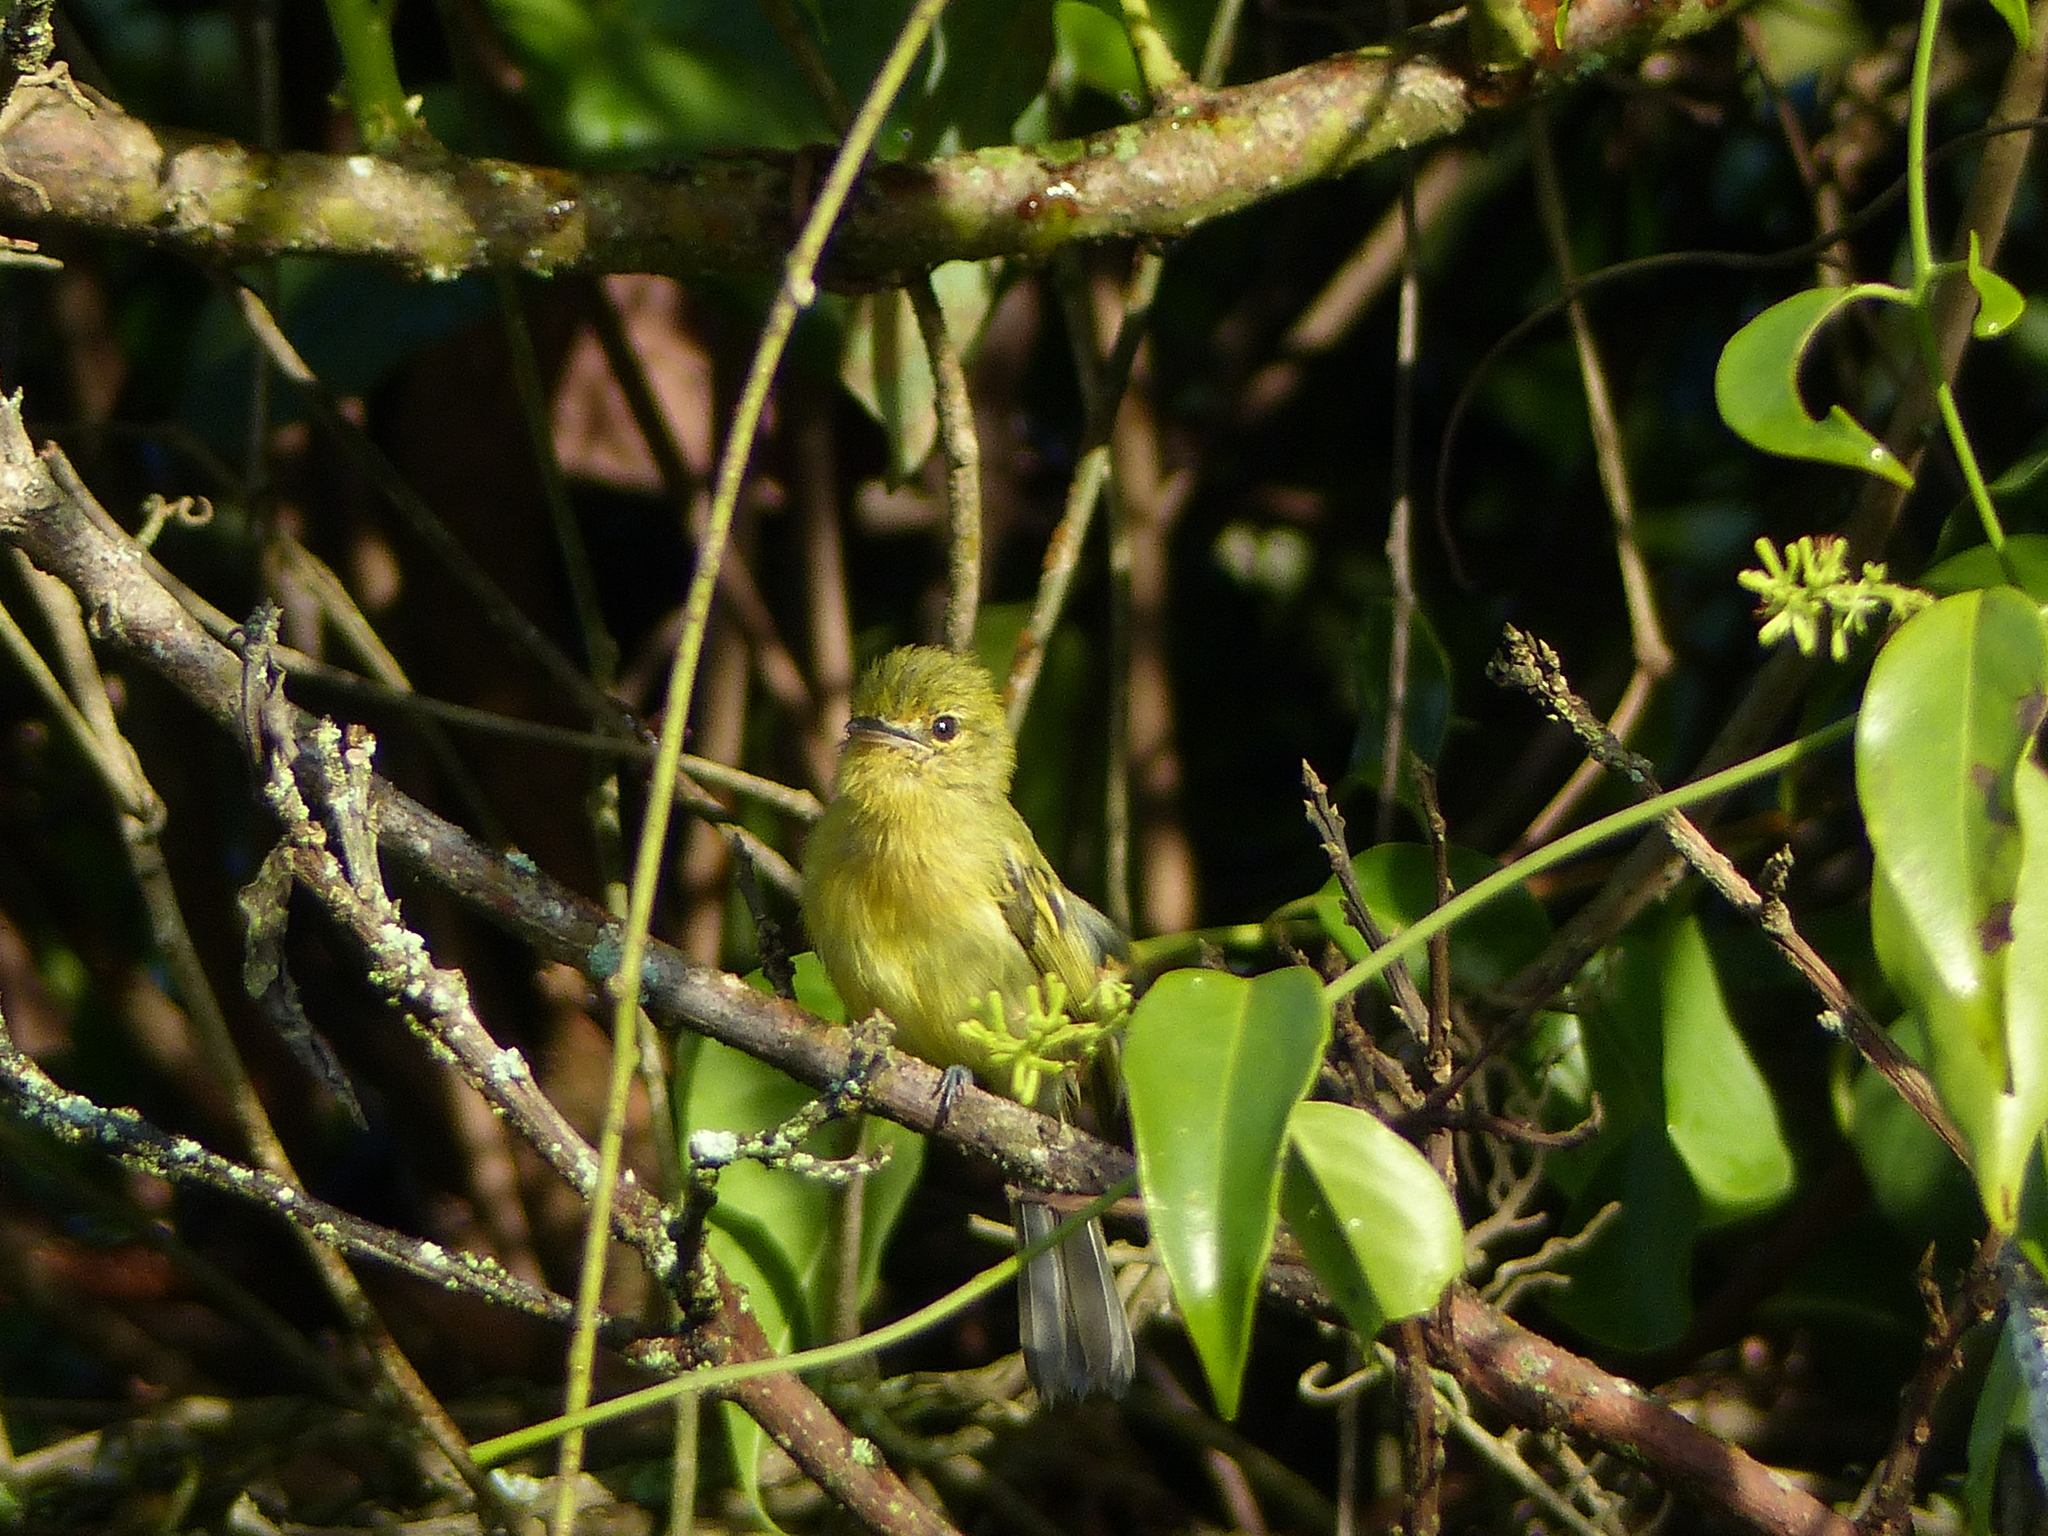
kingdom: Animalia
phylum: Chordata
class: Aves
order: Passeriformes
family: Tyrannidae
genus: Tolmomyias
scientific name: Tolmomyias flaviventris
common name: Ochre-lored flatbill
